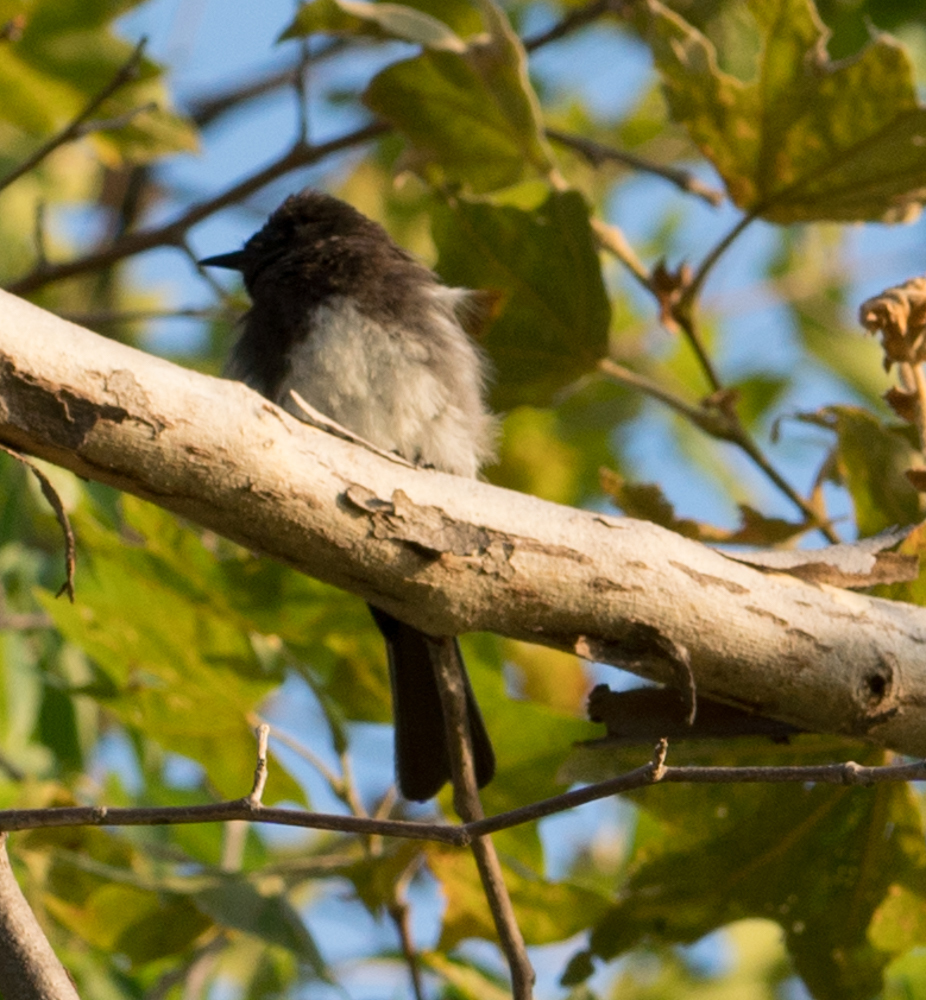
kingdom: Animalia
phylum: Chordata
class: Aves
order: Passeriformes
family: Tyrannidae
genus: Sayornis
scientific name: Sayornis nigricans
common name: Black phoebe
